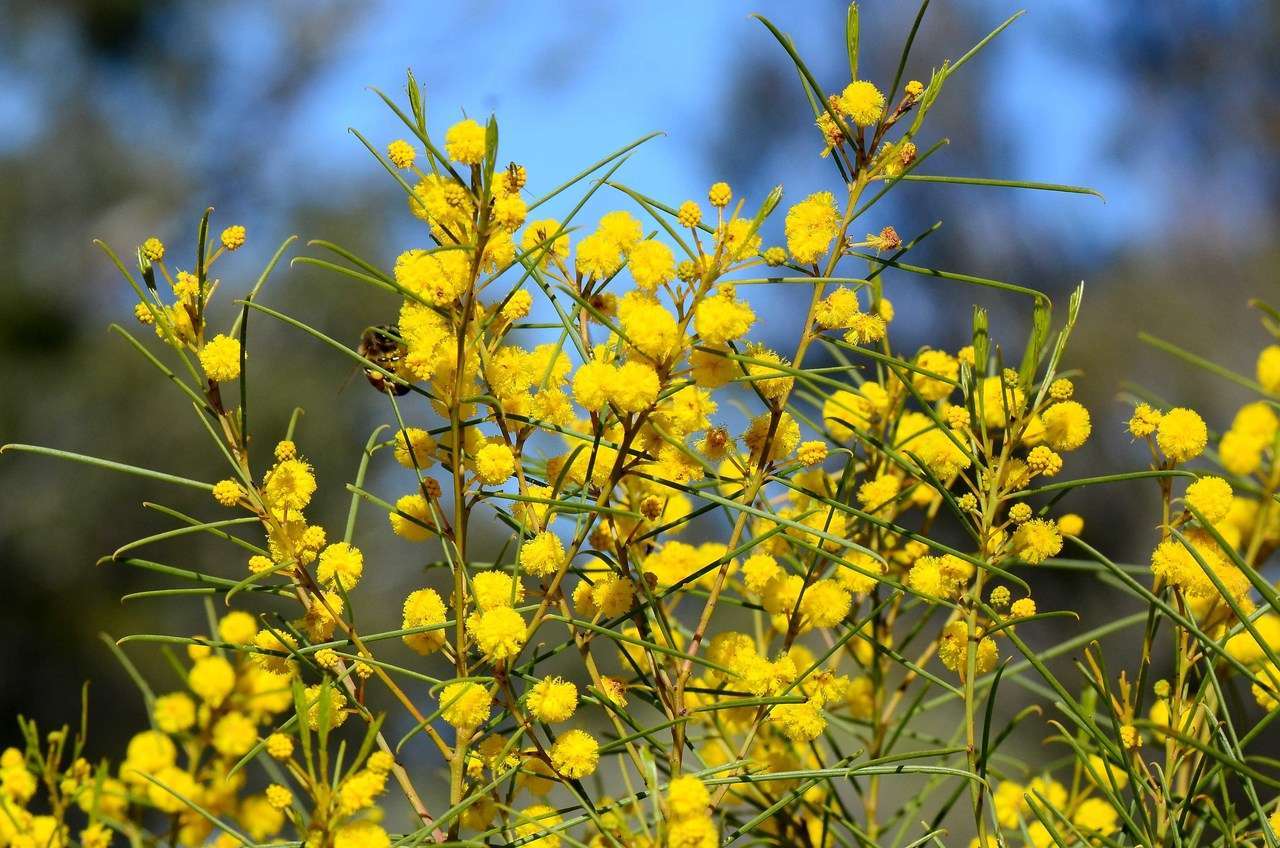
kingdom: Plantae
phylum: Tracheophyta
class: Magnoliopsida
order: Fabales
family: Fabaceae
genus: Acacia
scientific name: Acacia euthycarpa
